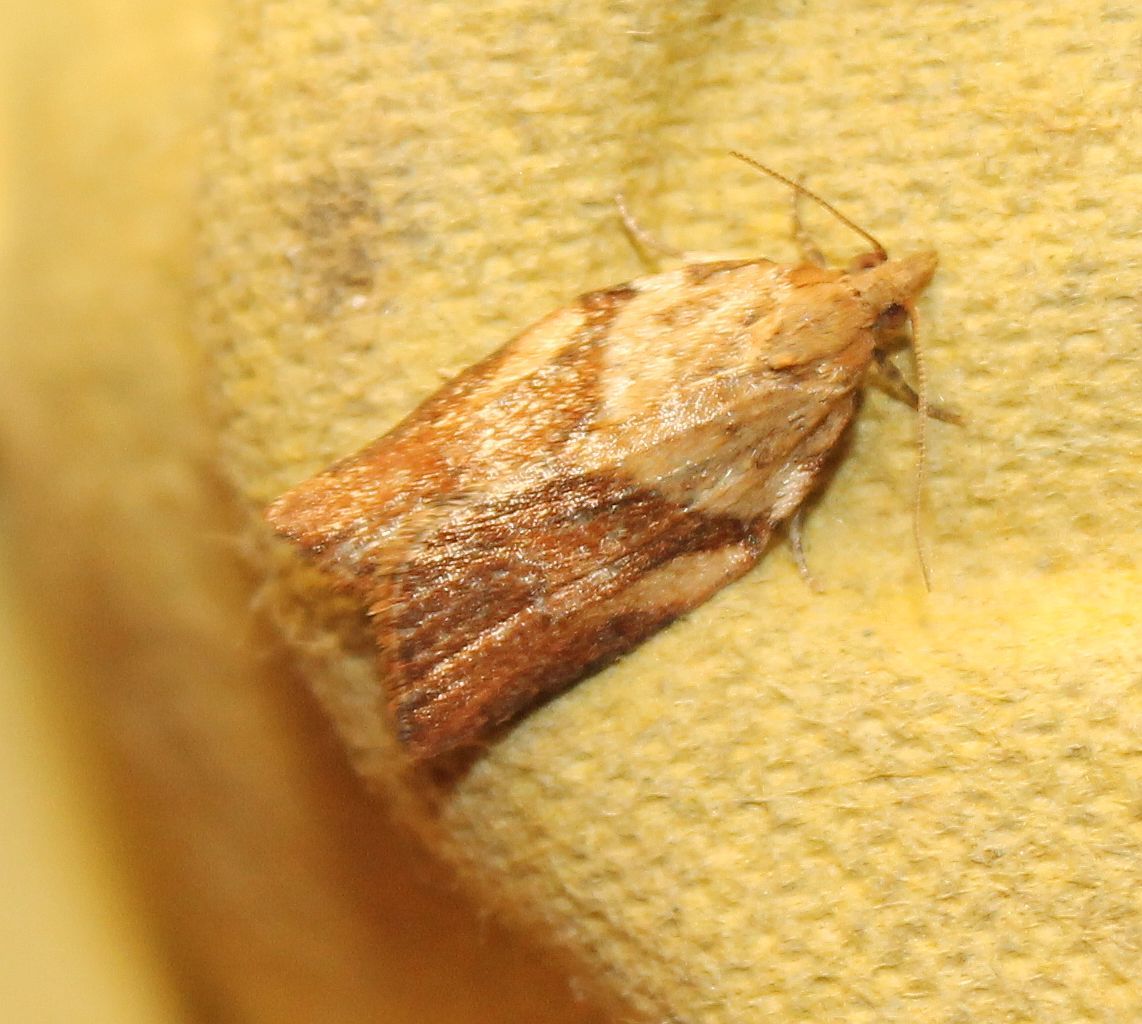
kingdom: Animalia
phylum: Arthropoda
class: Insecta
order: Lepidoptera
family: Tortricidae
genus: Epiphyas
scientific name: Epiphyas postvittana
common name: Light brown apple moth
